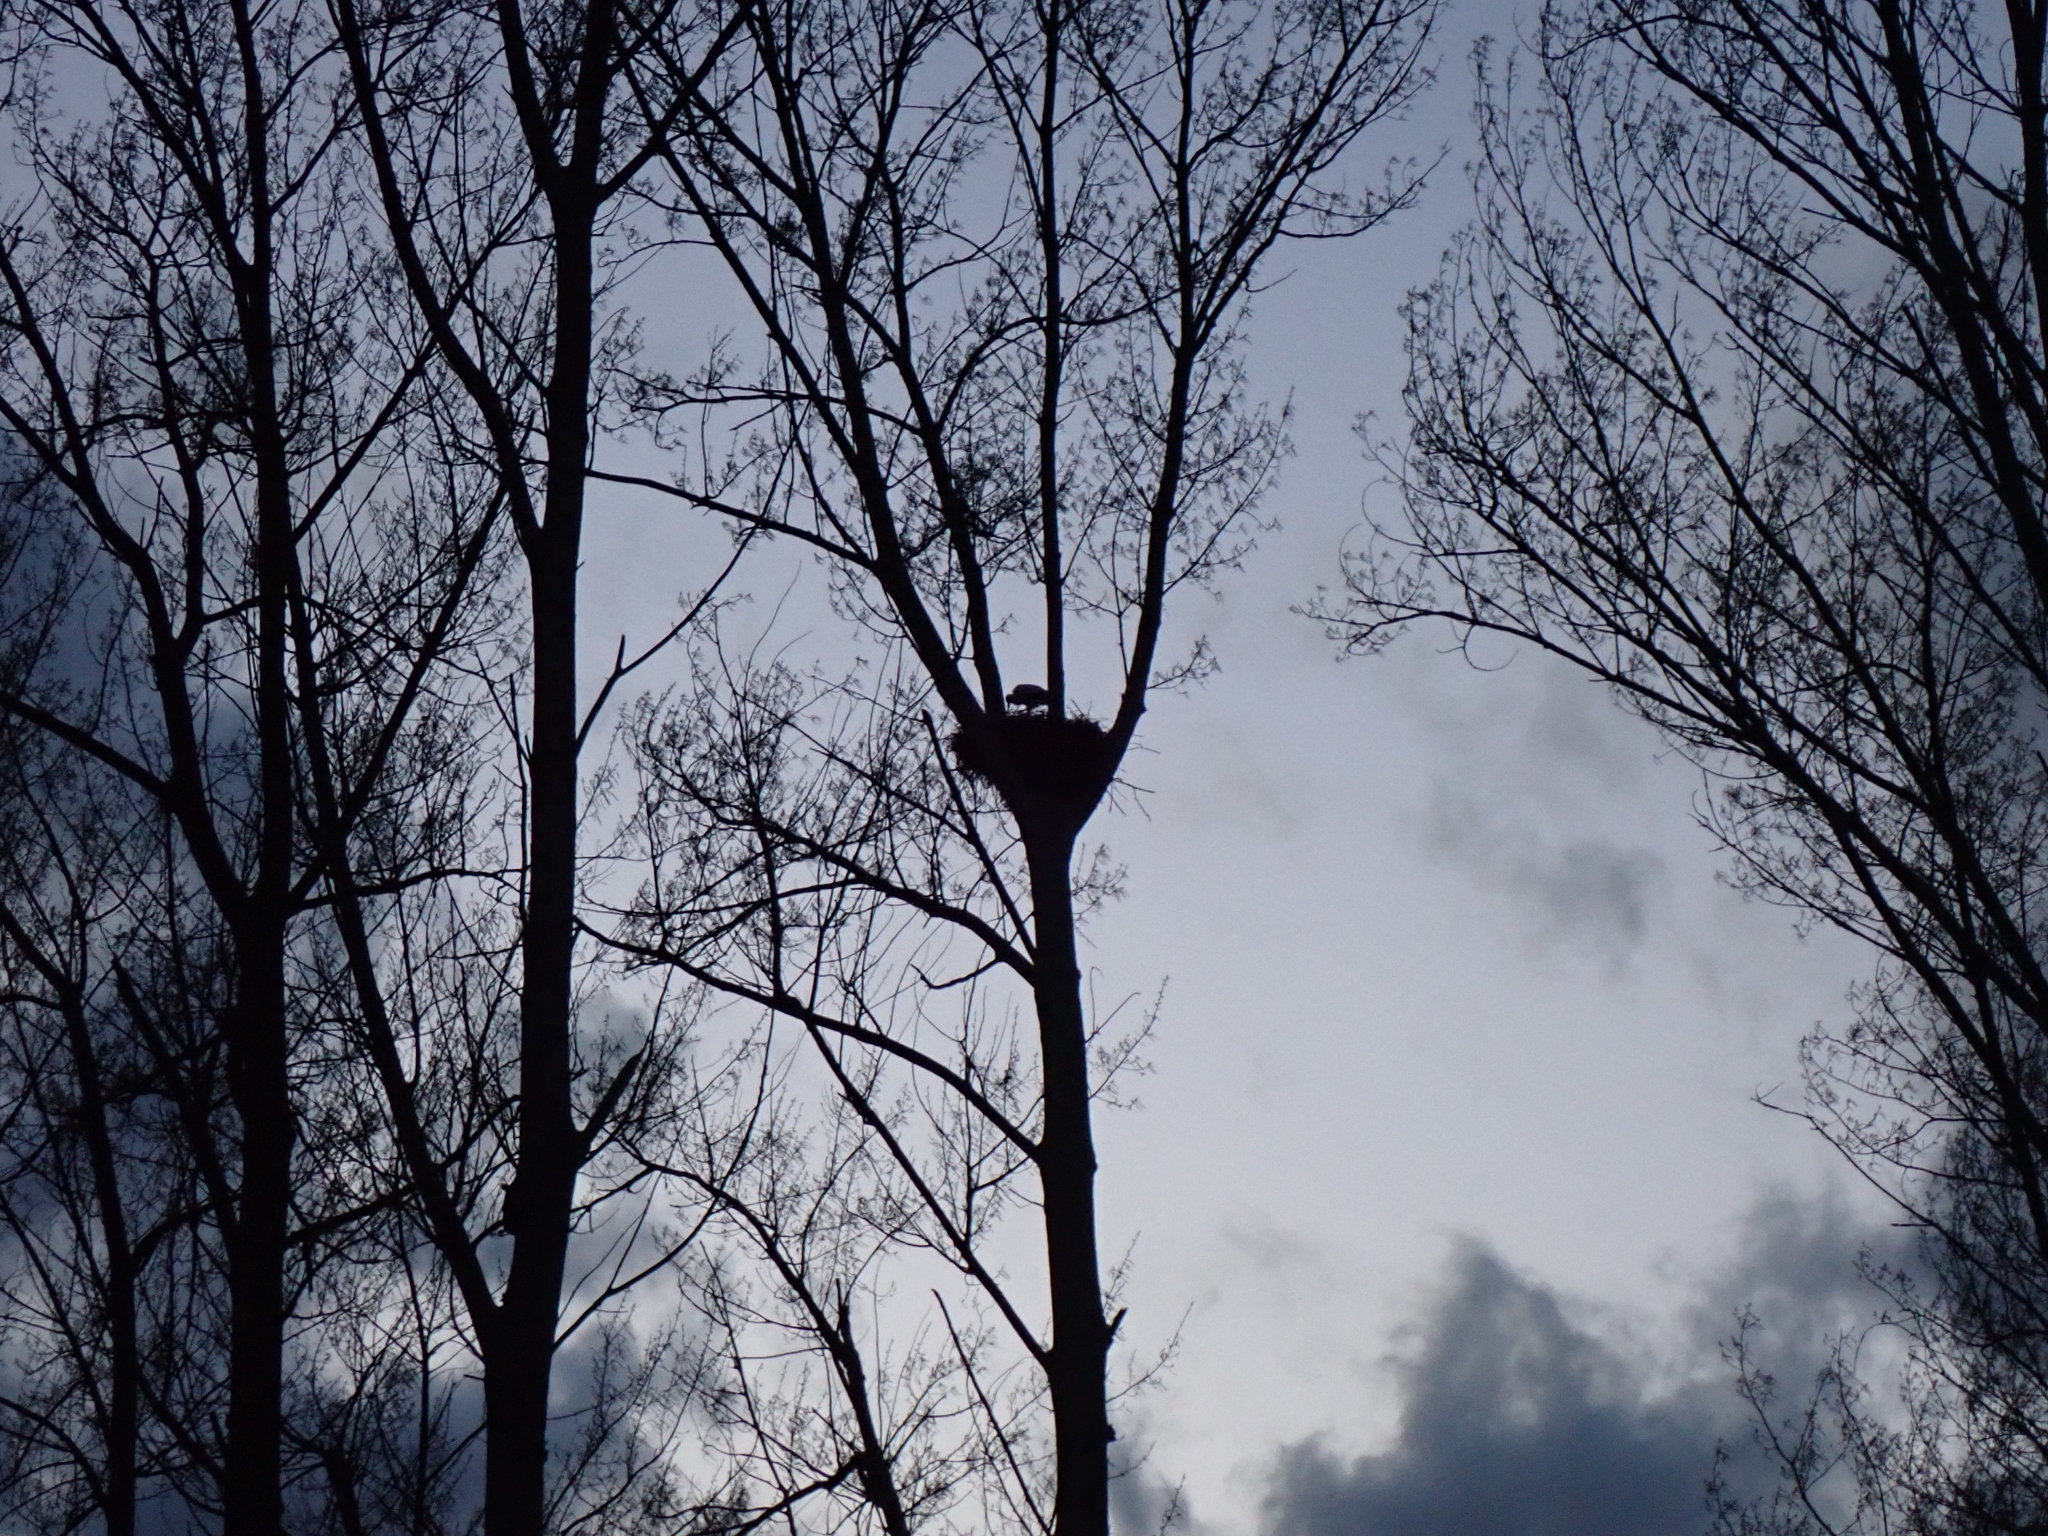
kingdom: Animalia
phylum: Chordata
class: Aves
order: Ciconiiformes
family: Ciconiidae
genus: Ciconia
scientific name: Ciconia ciconia
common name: White stork
